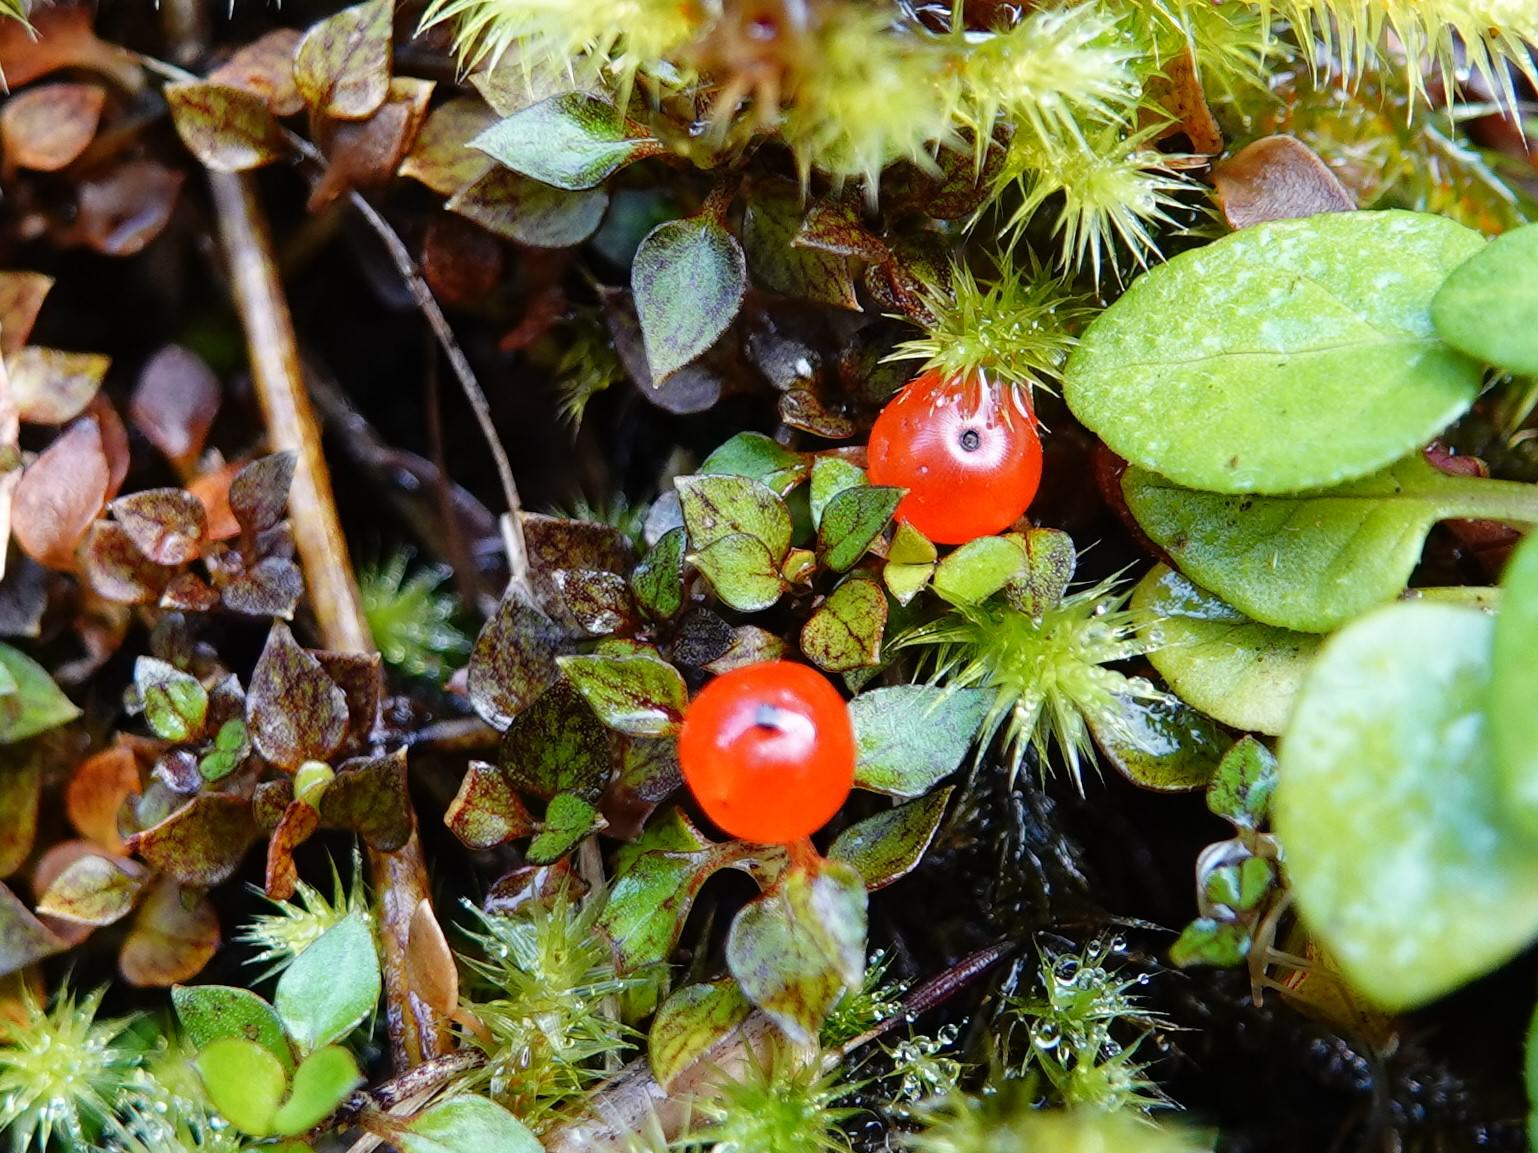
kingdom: Plantae
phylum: Tracheophyta
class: Magnoliopsida
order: Gentianales
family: Rubiaceae
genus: Nertera
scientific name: Nertera granadensis
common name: Beadplant
